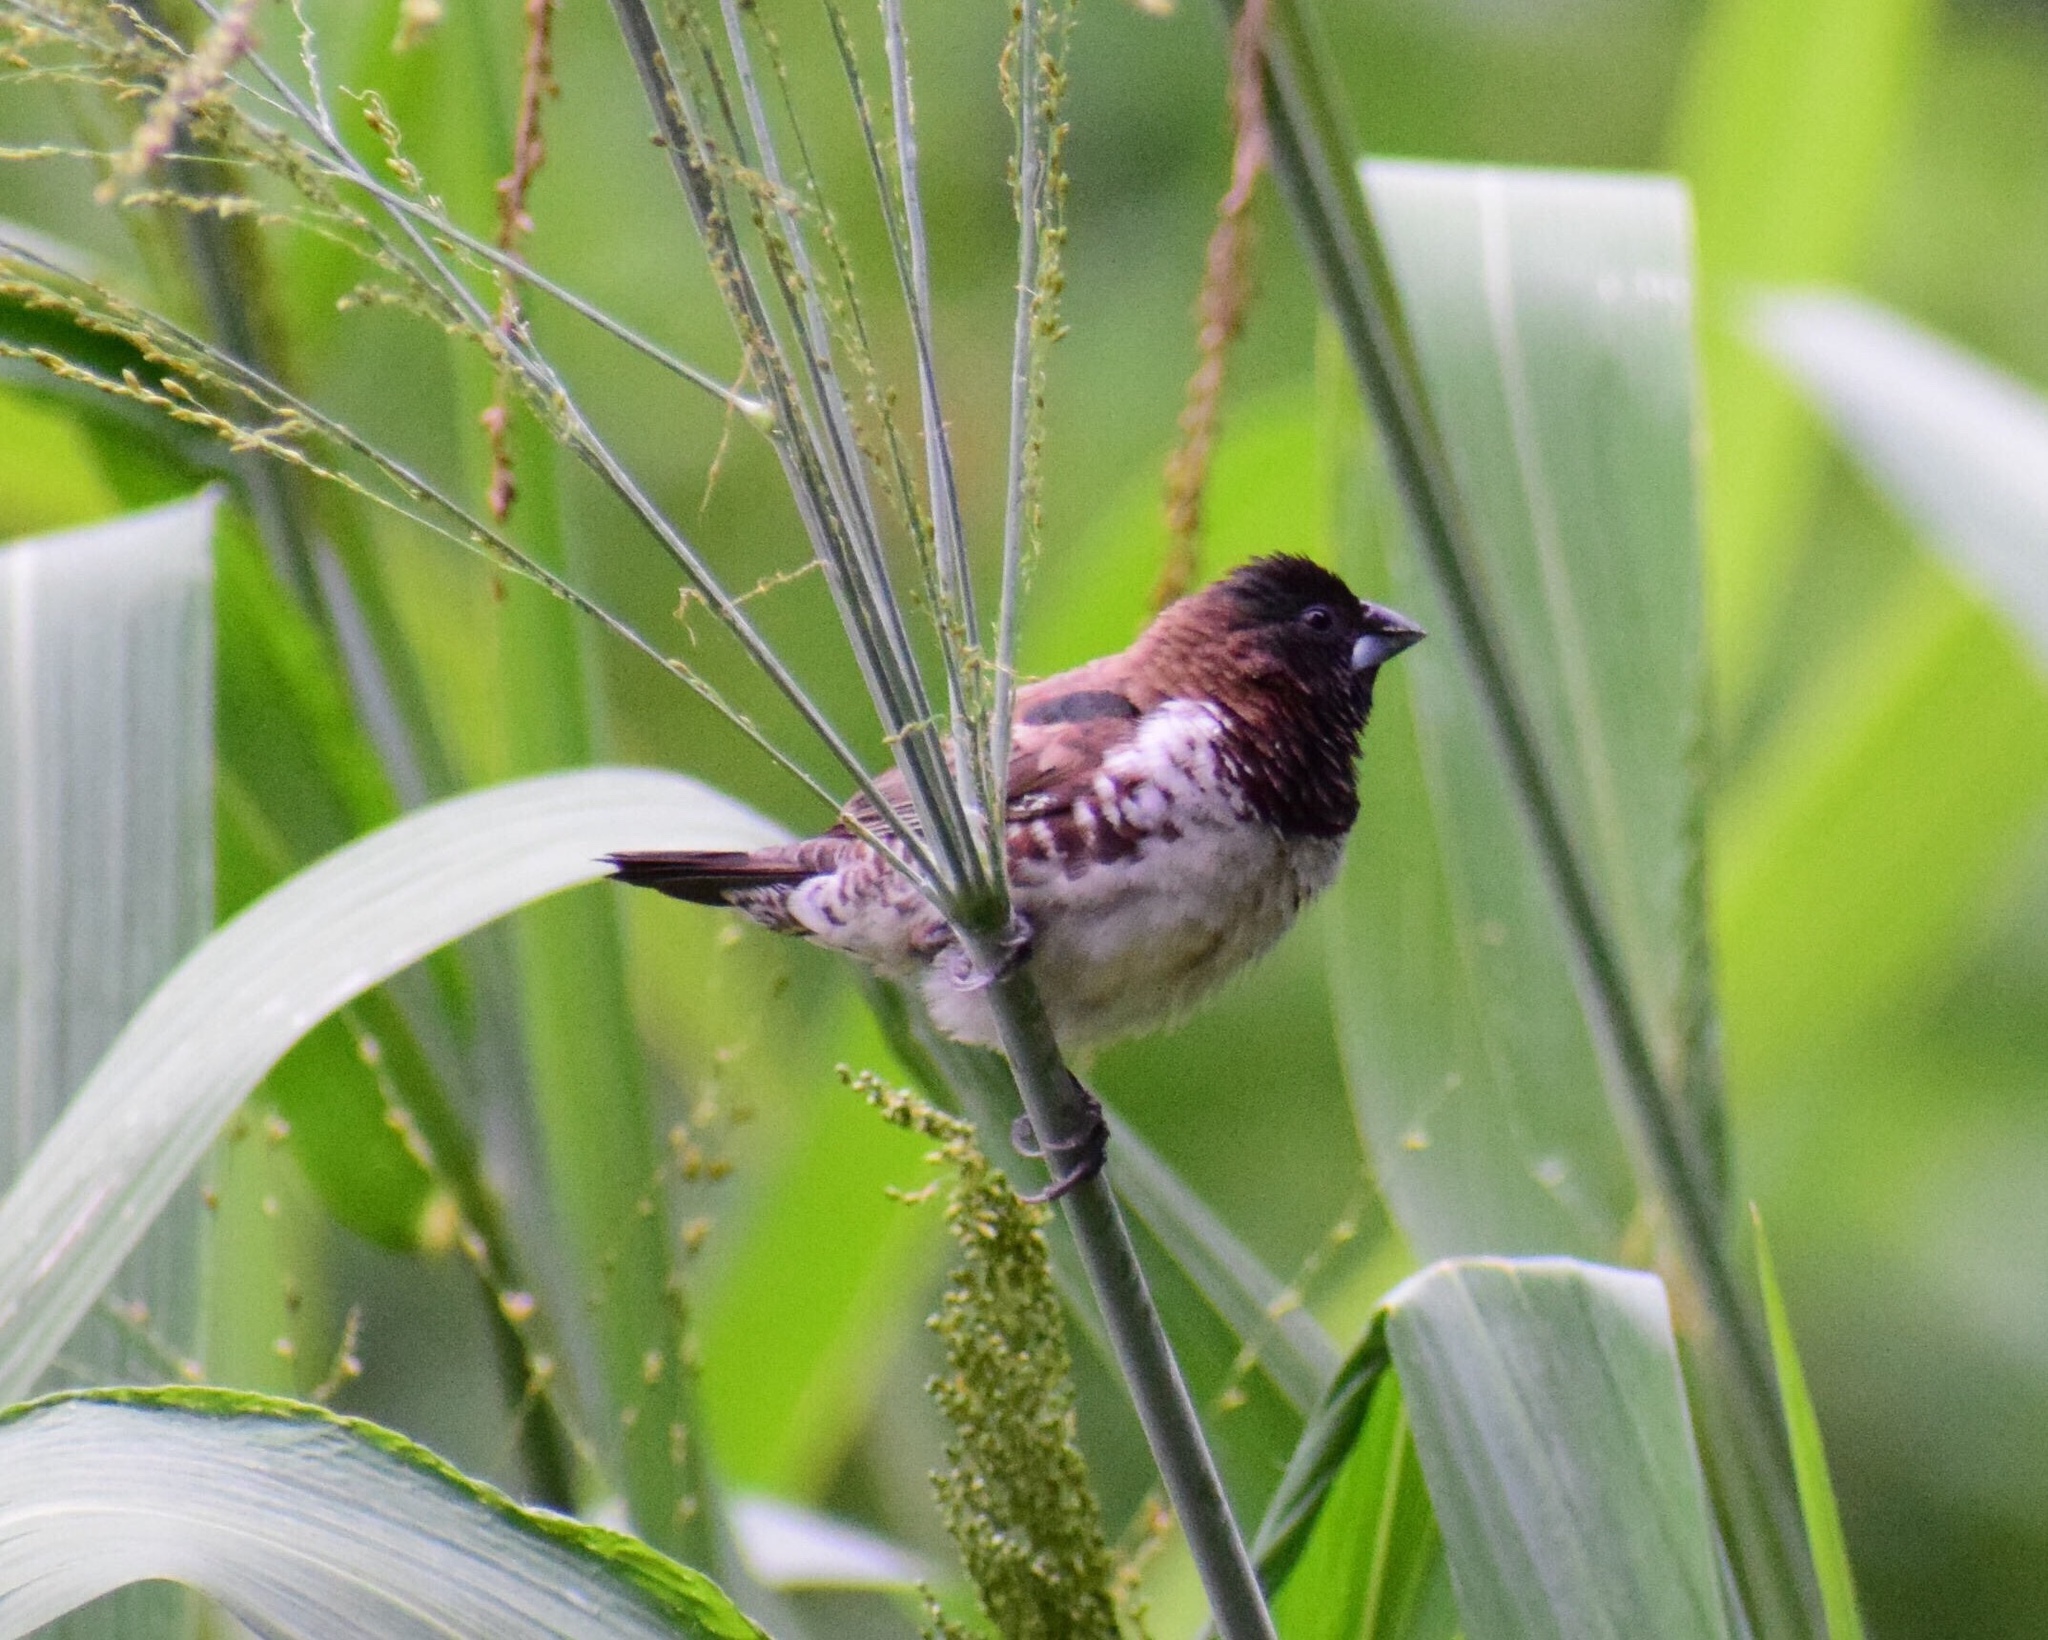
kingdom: Animalia
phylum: Chordata
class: Aves
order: Passeriformes
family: Estrildidae
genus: Lonchura
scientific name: Lonchura cucullata
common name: Bronze mannikin
